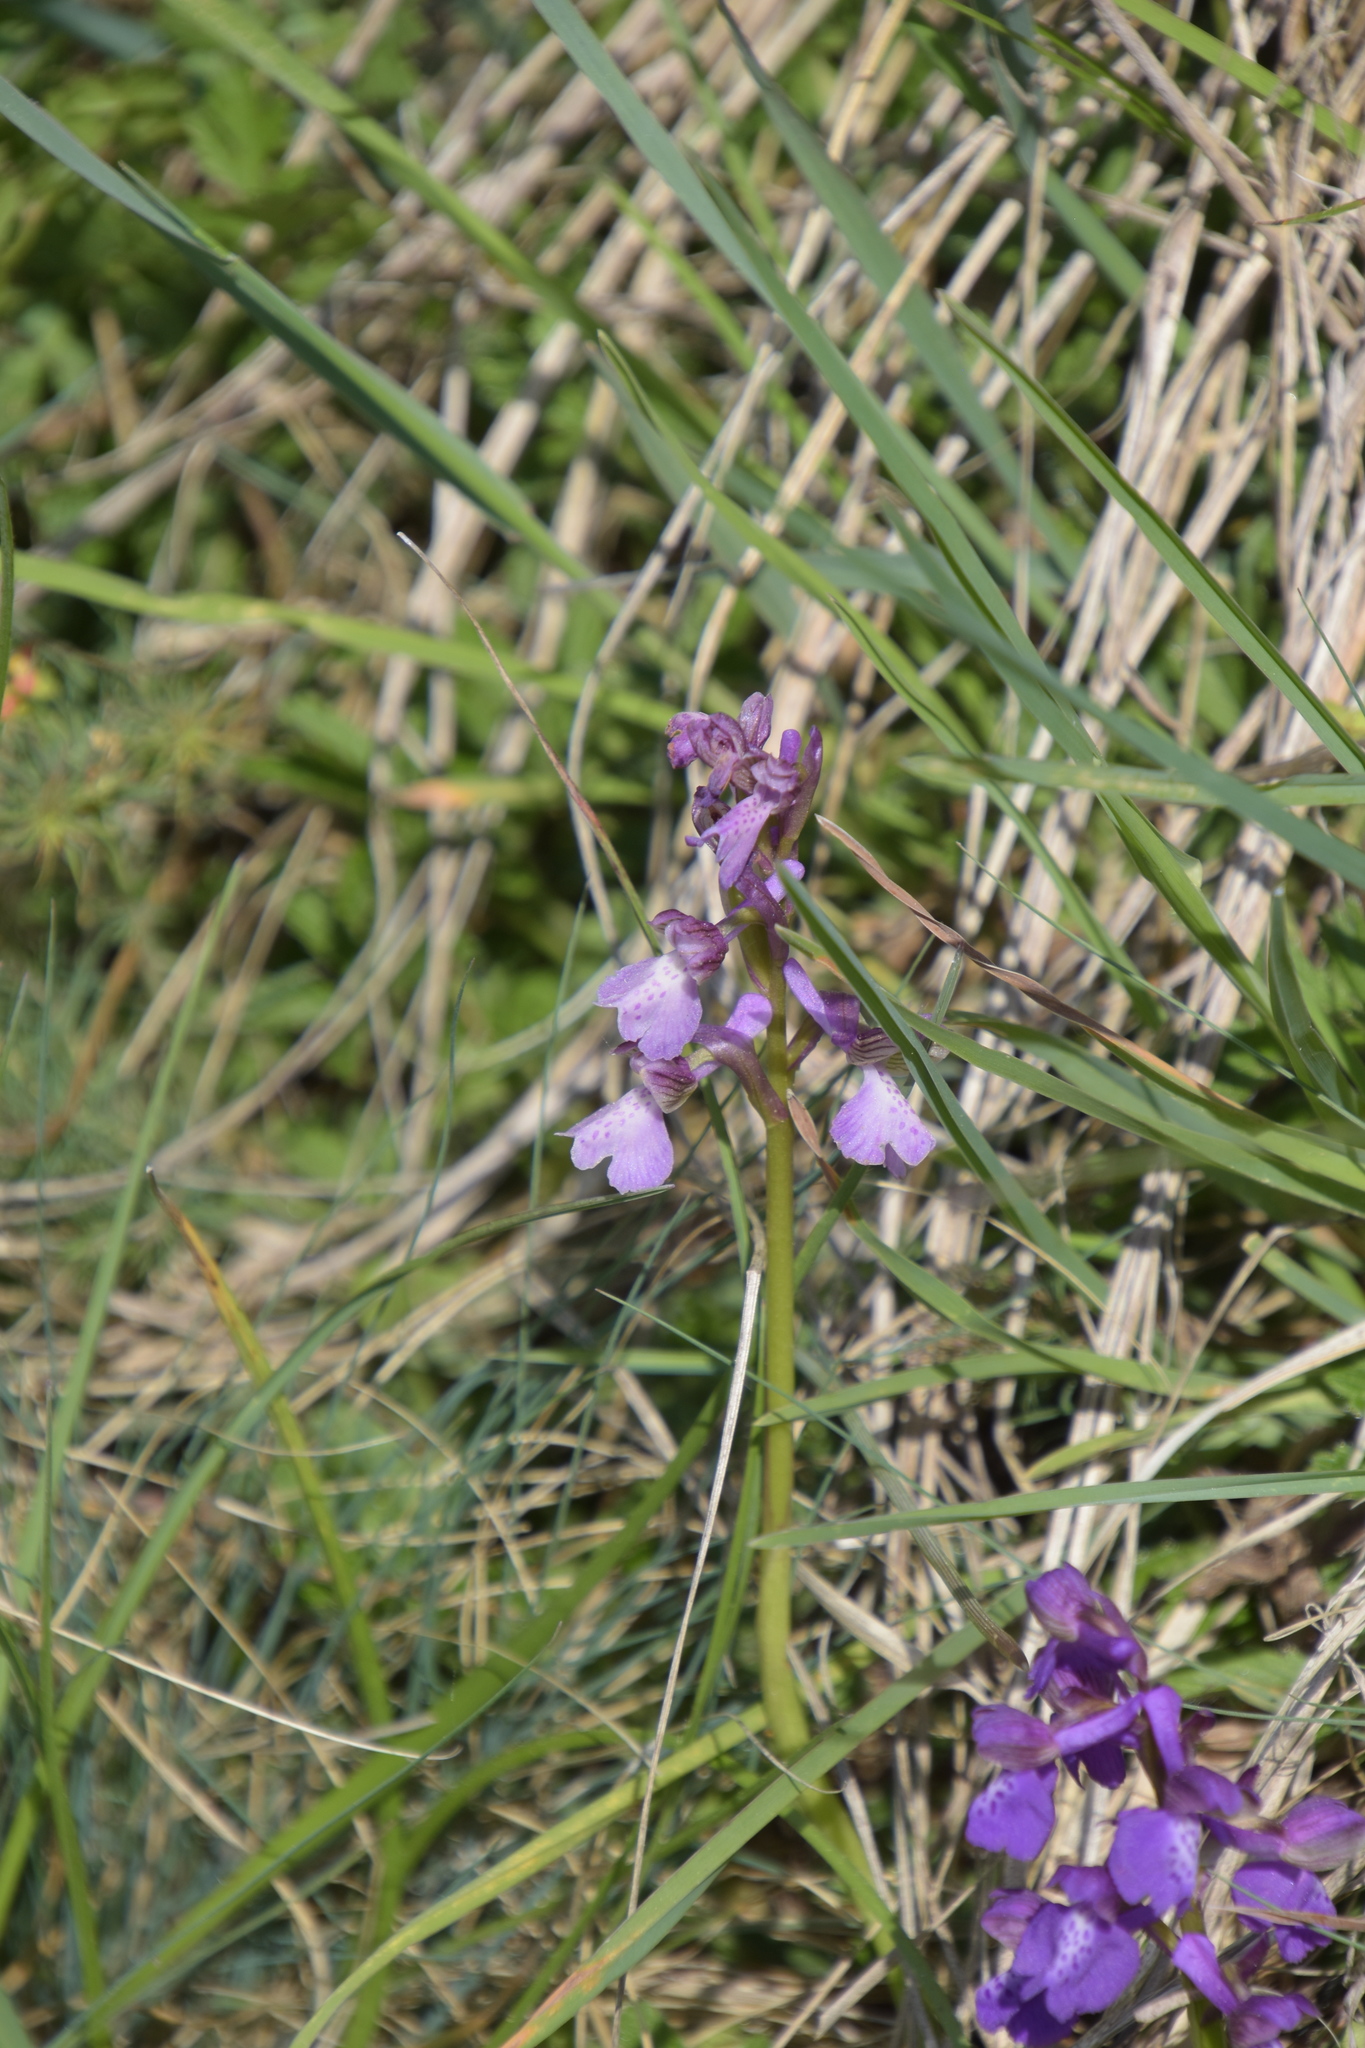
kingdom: Plantae
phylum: Tracheophyta
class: Liliopsida
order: Asparagales
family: Orchidaceae
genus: Anacamptis
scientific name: Anacamptis morio
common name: Green-winged orchid
